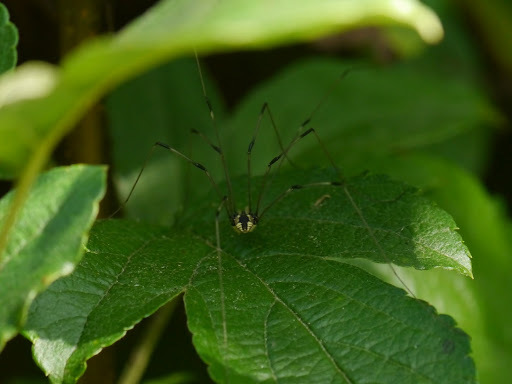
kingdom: Animalia
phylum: Arthropoda
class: Arachnida
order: Opiliones
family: Sclerosomatidae
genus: Leiobunum
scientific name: Leiobunum vittatum
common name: Eastern harvestman
